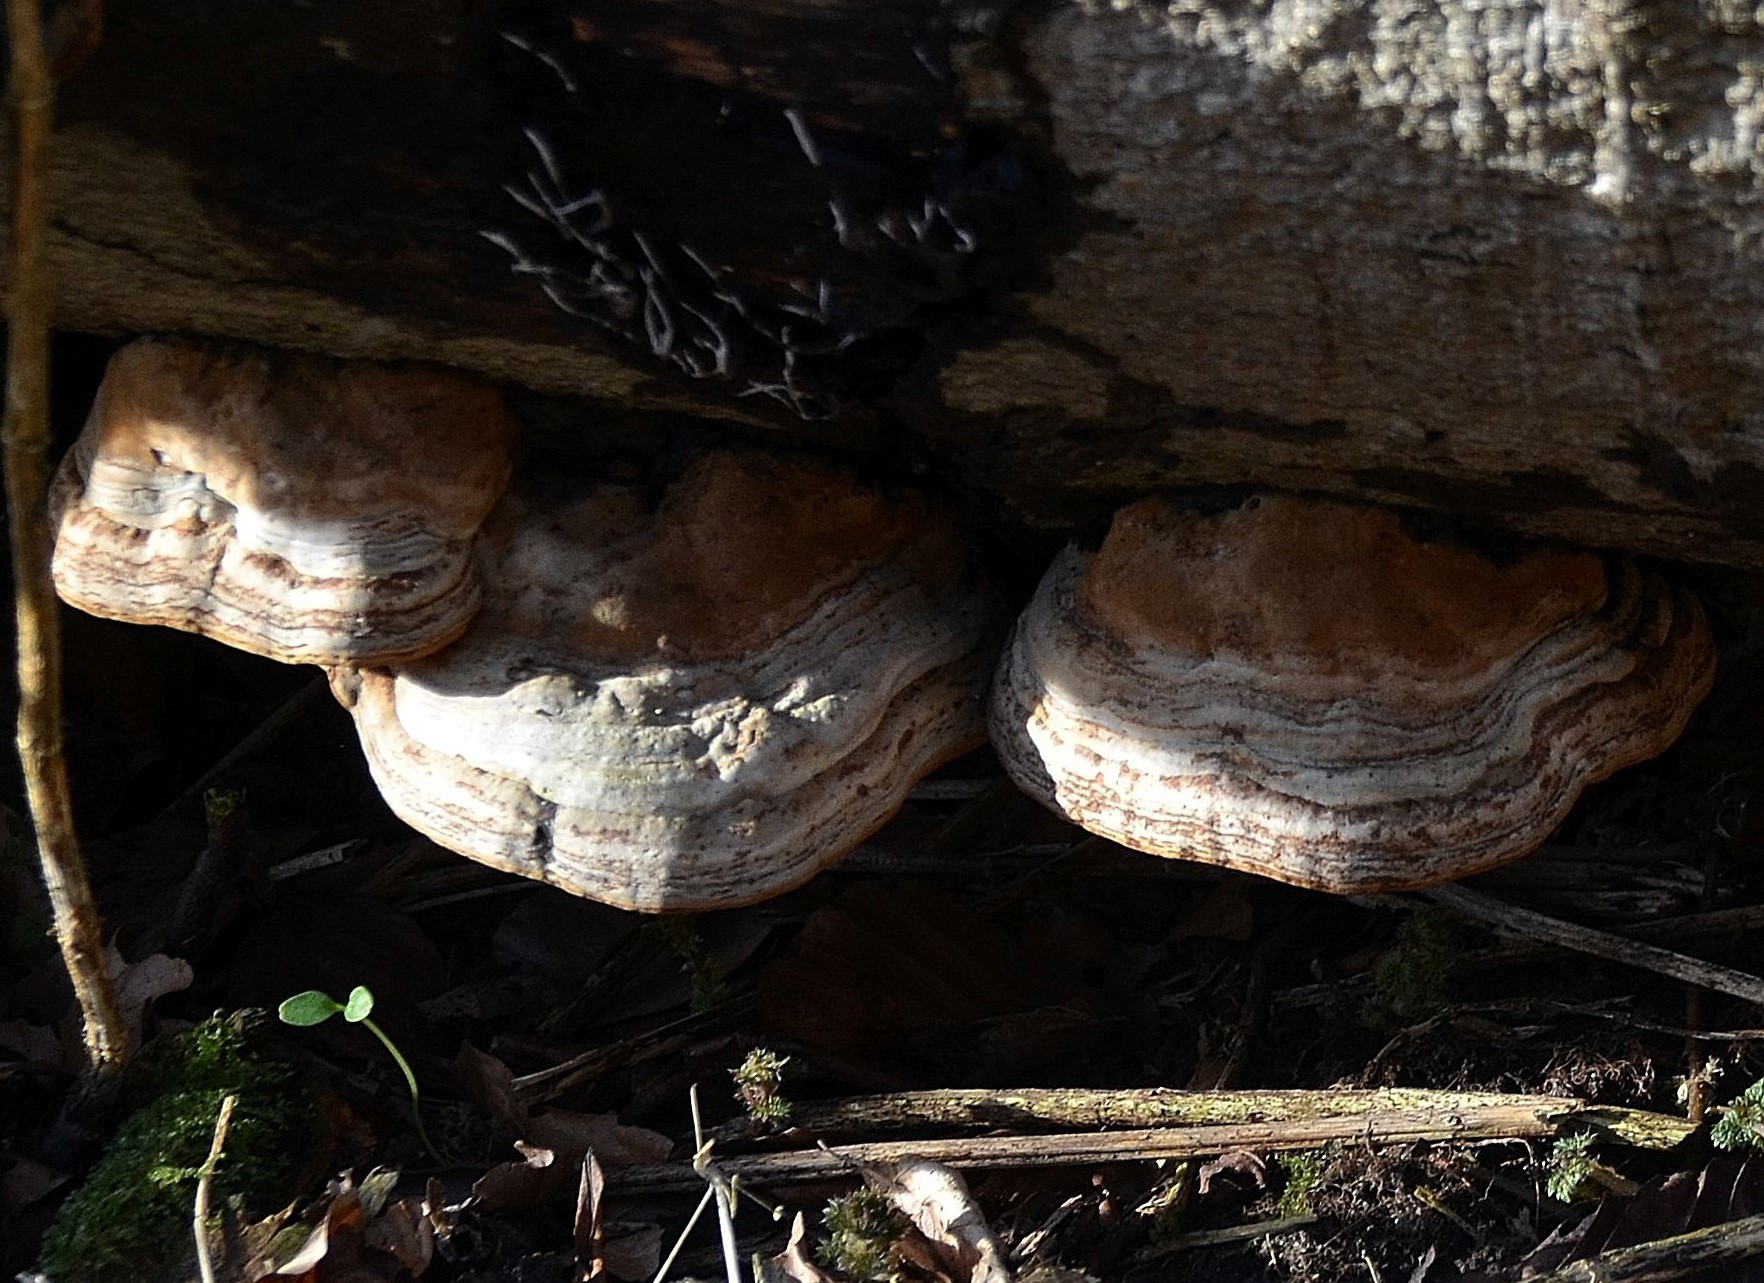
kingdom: Fungi
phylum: Basidiomycota
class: Agaricomycetes
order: Polyporales
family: Polyporaceae
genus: Fomes
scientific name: Fomes fomentarius
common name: Hoof fungus
